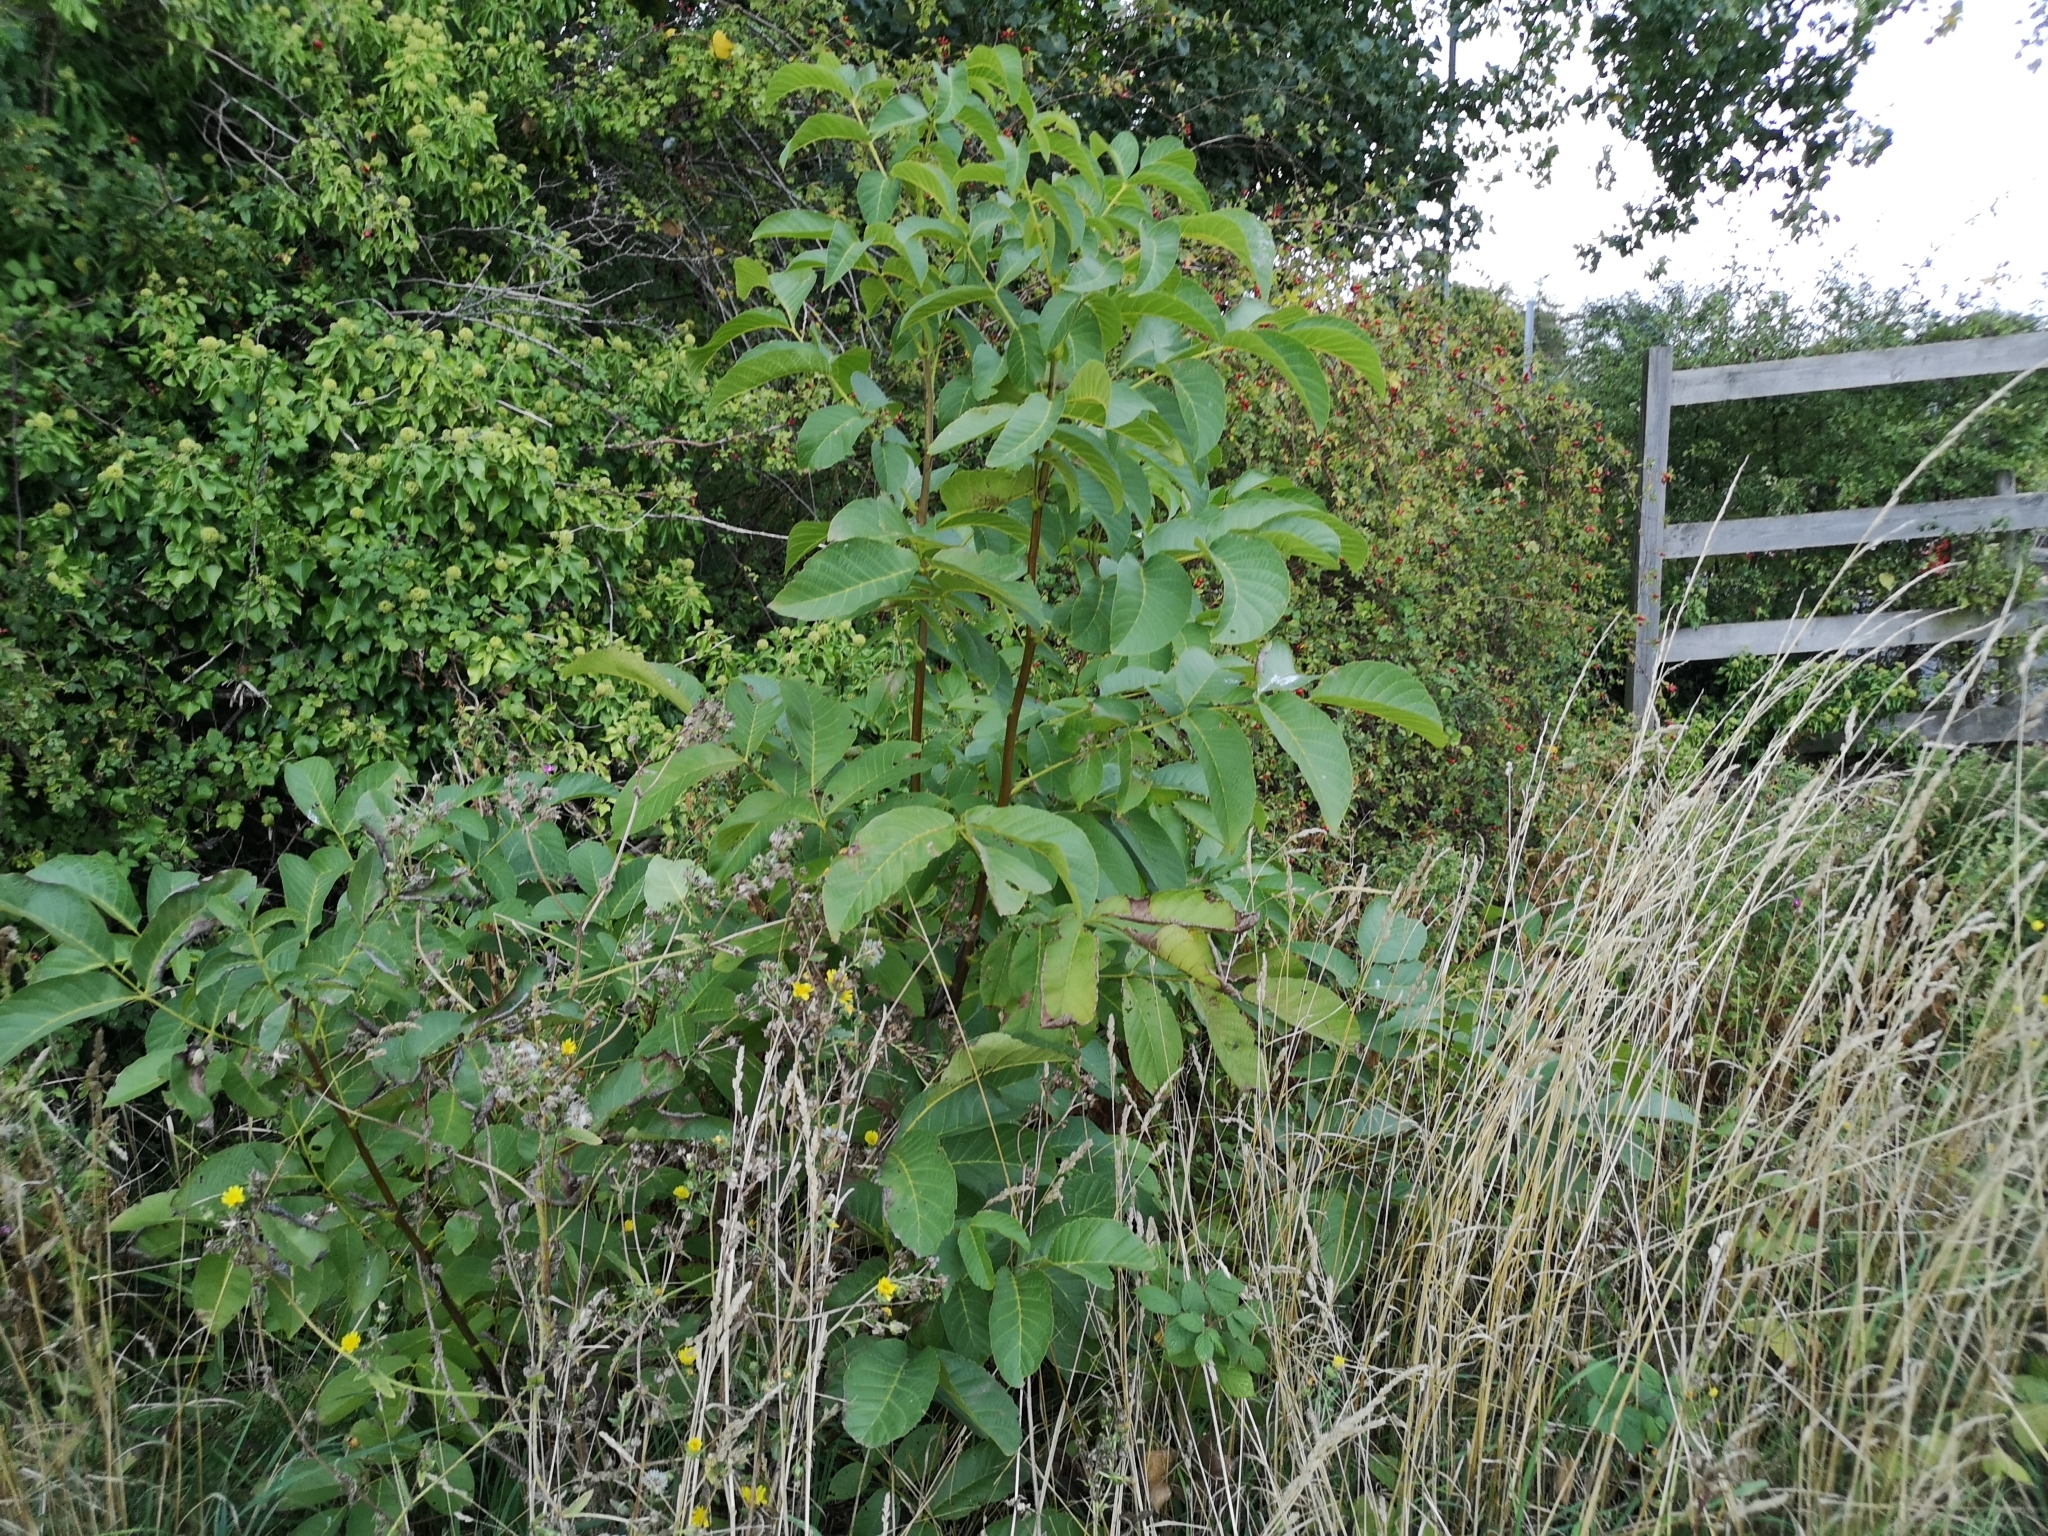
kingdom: Plantae
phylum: Tracheophyta
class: Magnoliopsida
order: Fagales
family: Juglandaceae
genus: Juglans
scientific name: Juglans regia
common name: Walnut
